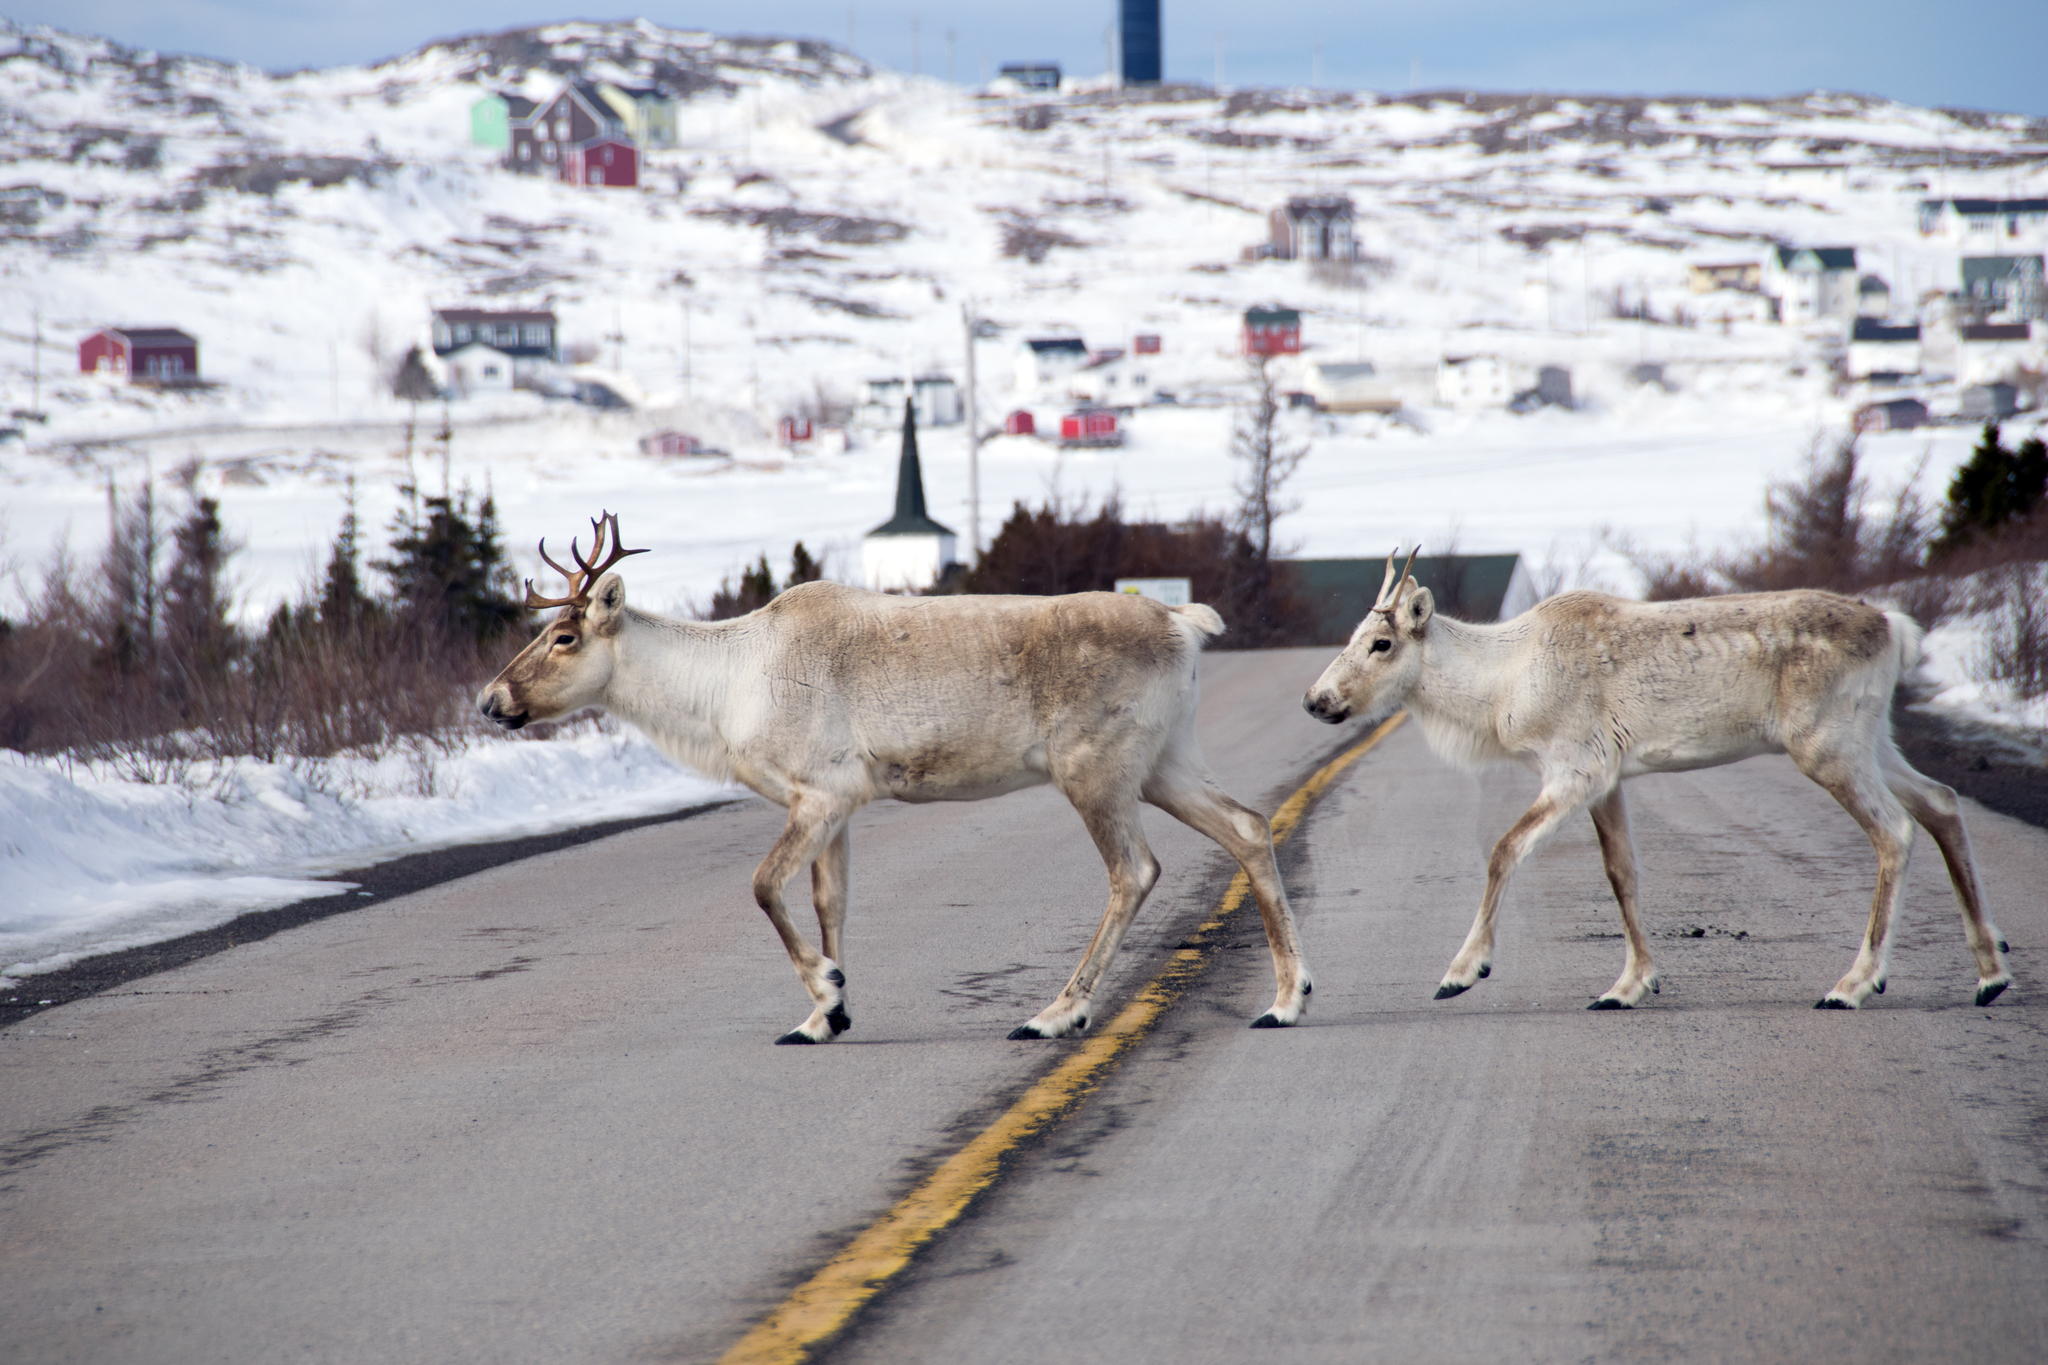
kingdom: Animalia
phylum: Chordata
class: Mammalia
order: Artiodactyla
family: Cervidae
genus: Rangifer
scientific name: Rangifer tarandus
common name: Reindeer
